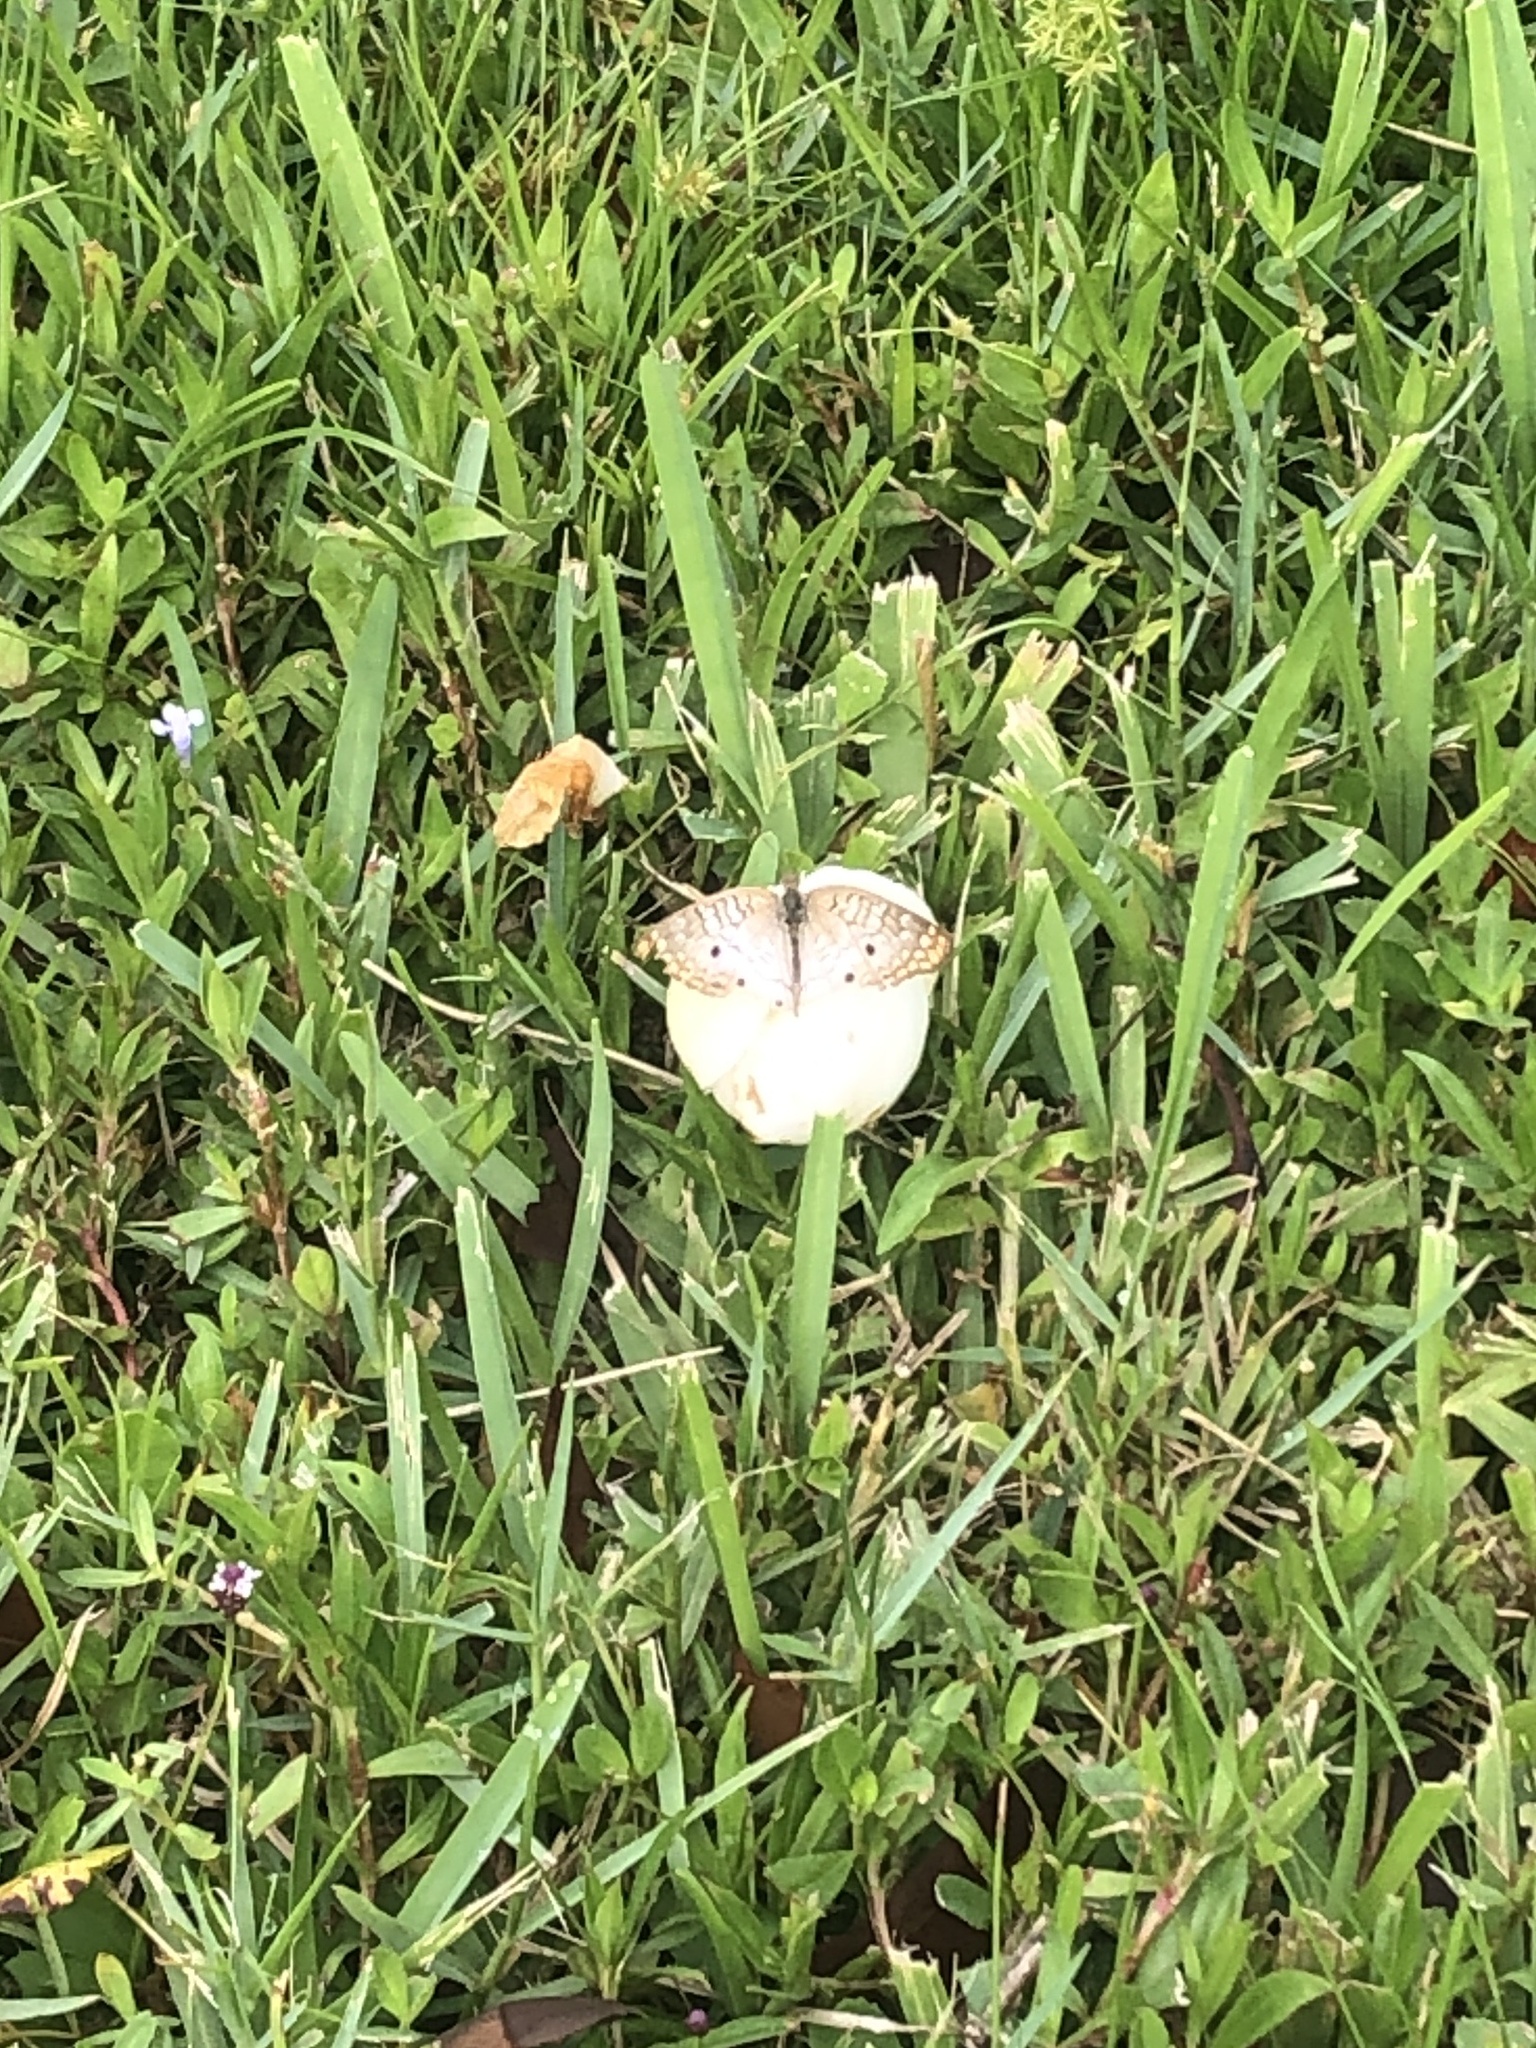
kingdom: Animalia
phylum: Arthropoda
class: Insecta
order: Lepidoptera
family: Nymphalidae
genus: Anartia
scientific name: Anartia jatrophae
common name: White peacock
